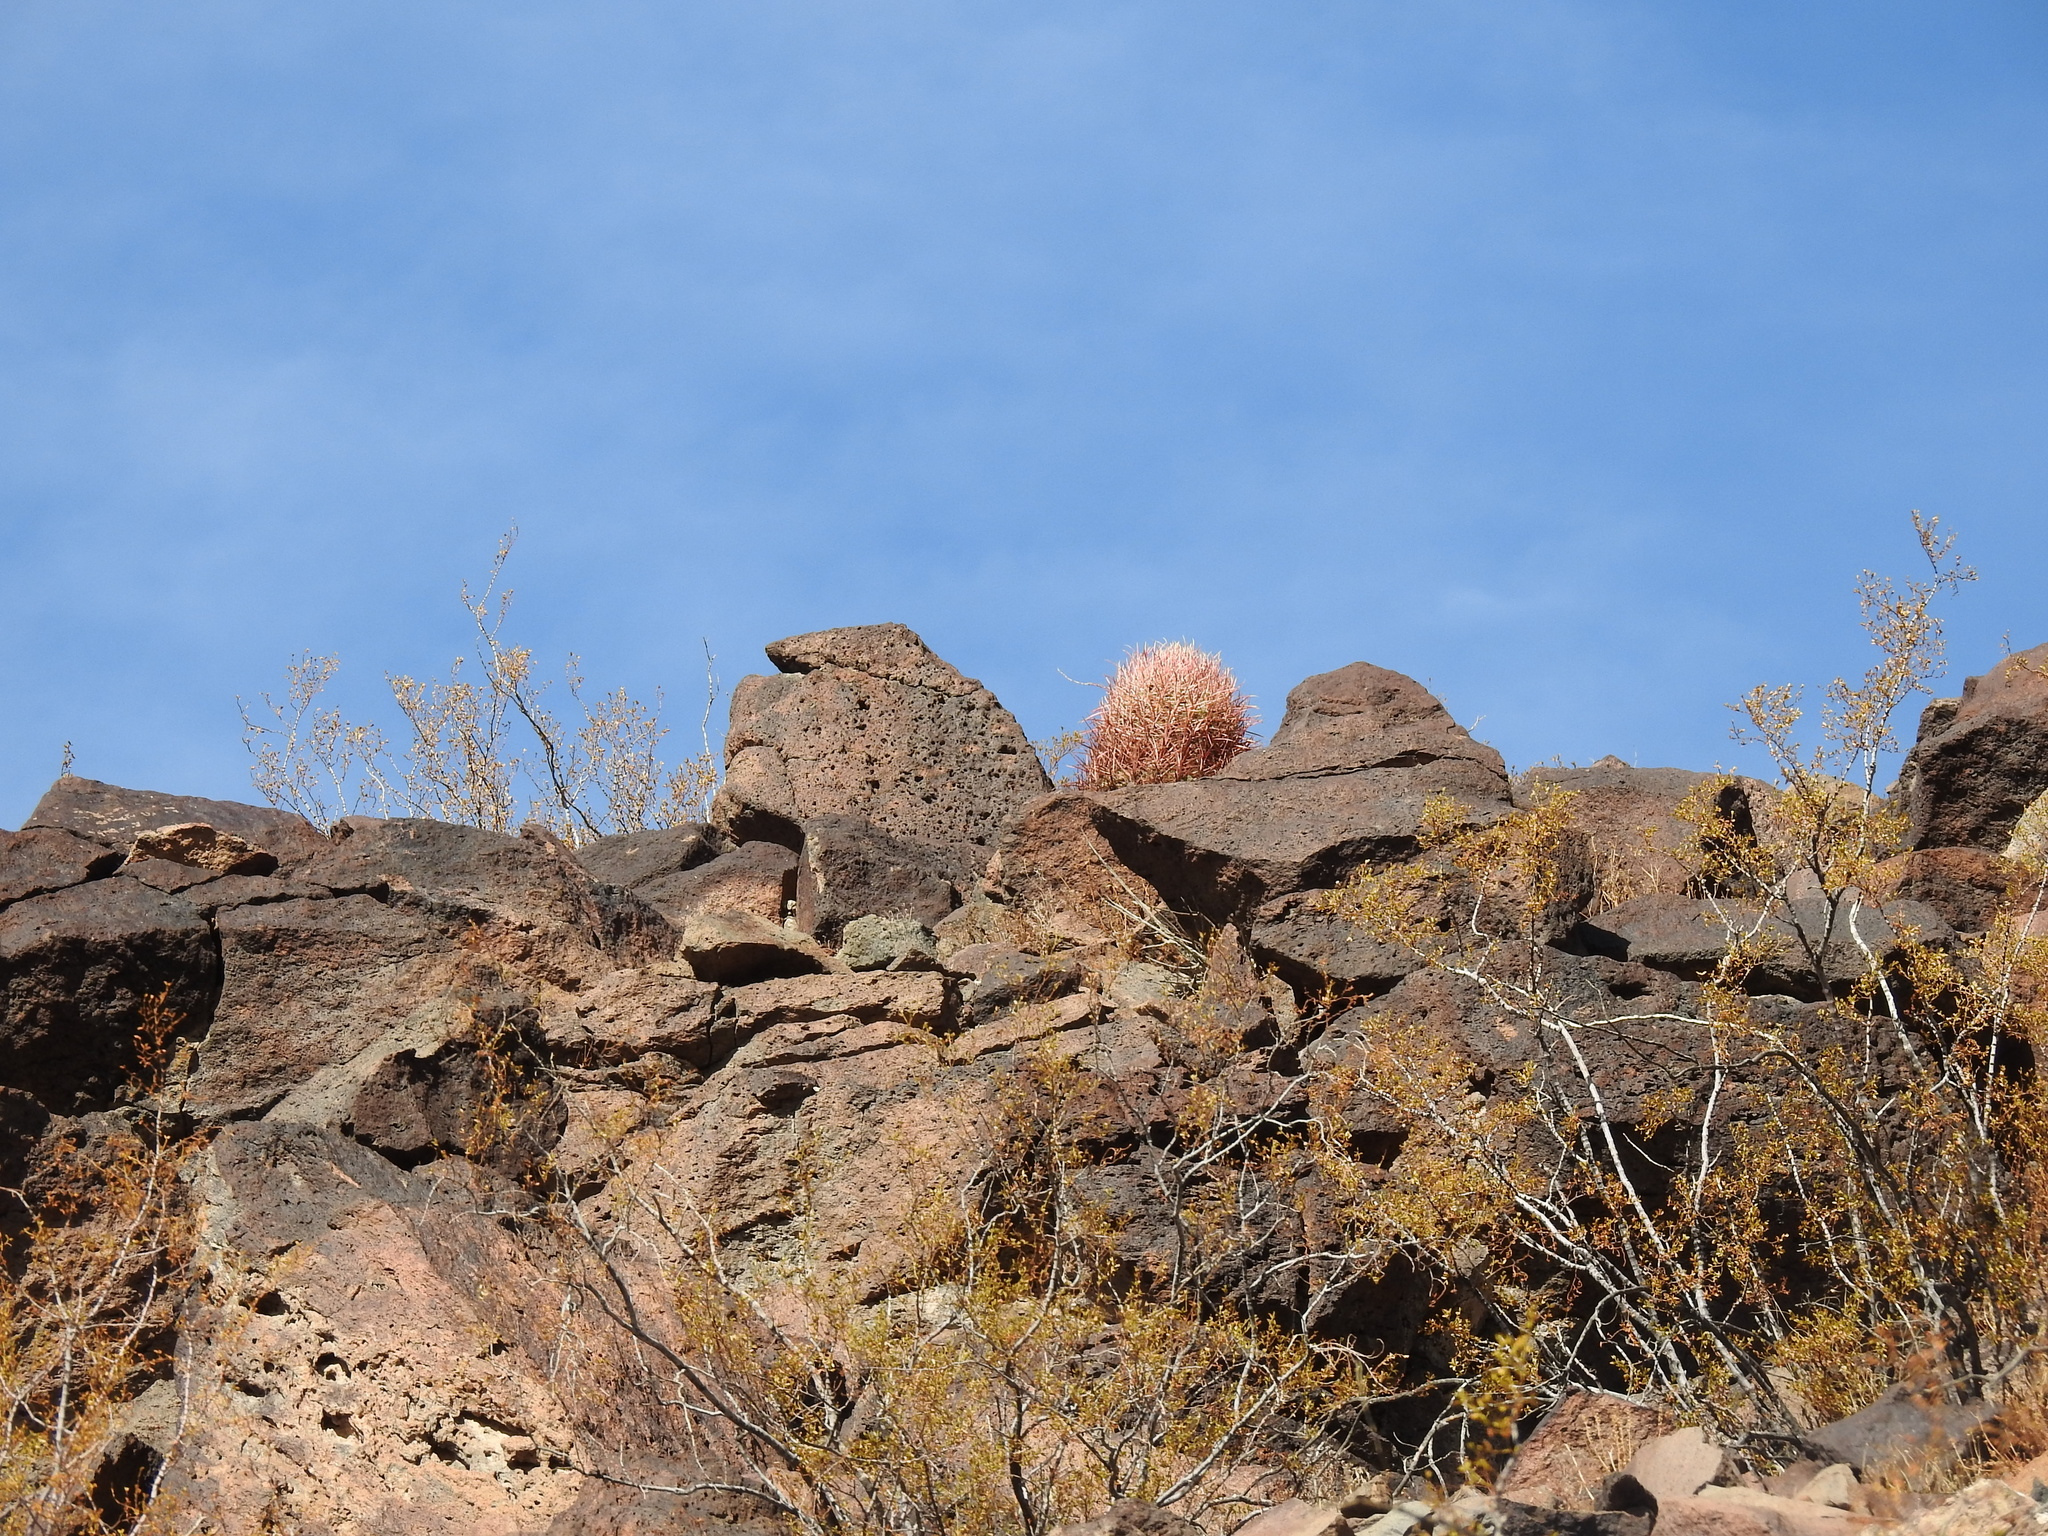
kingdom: Plantae
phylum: Tracheophyta
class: Magnoliopsida
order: Caryophyllales
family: Cactaceae
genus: Ferocactus
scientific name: Ferocactus cylindraceus
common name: California barrel cactus
